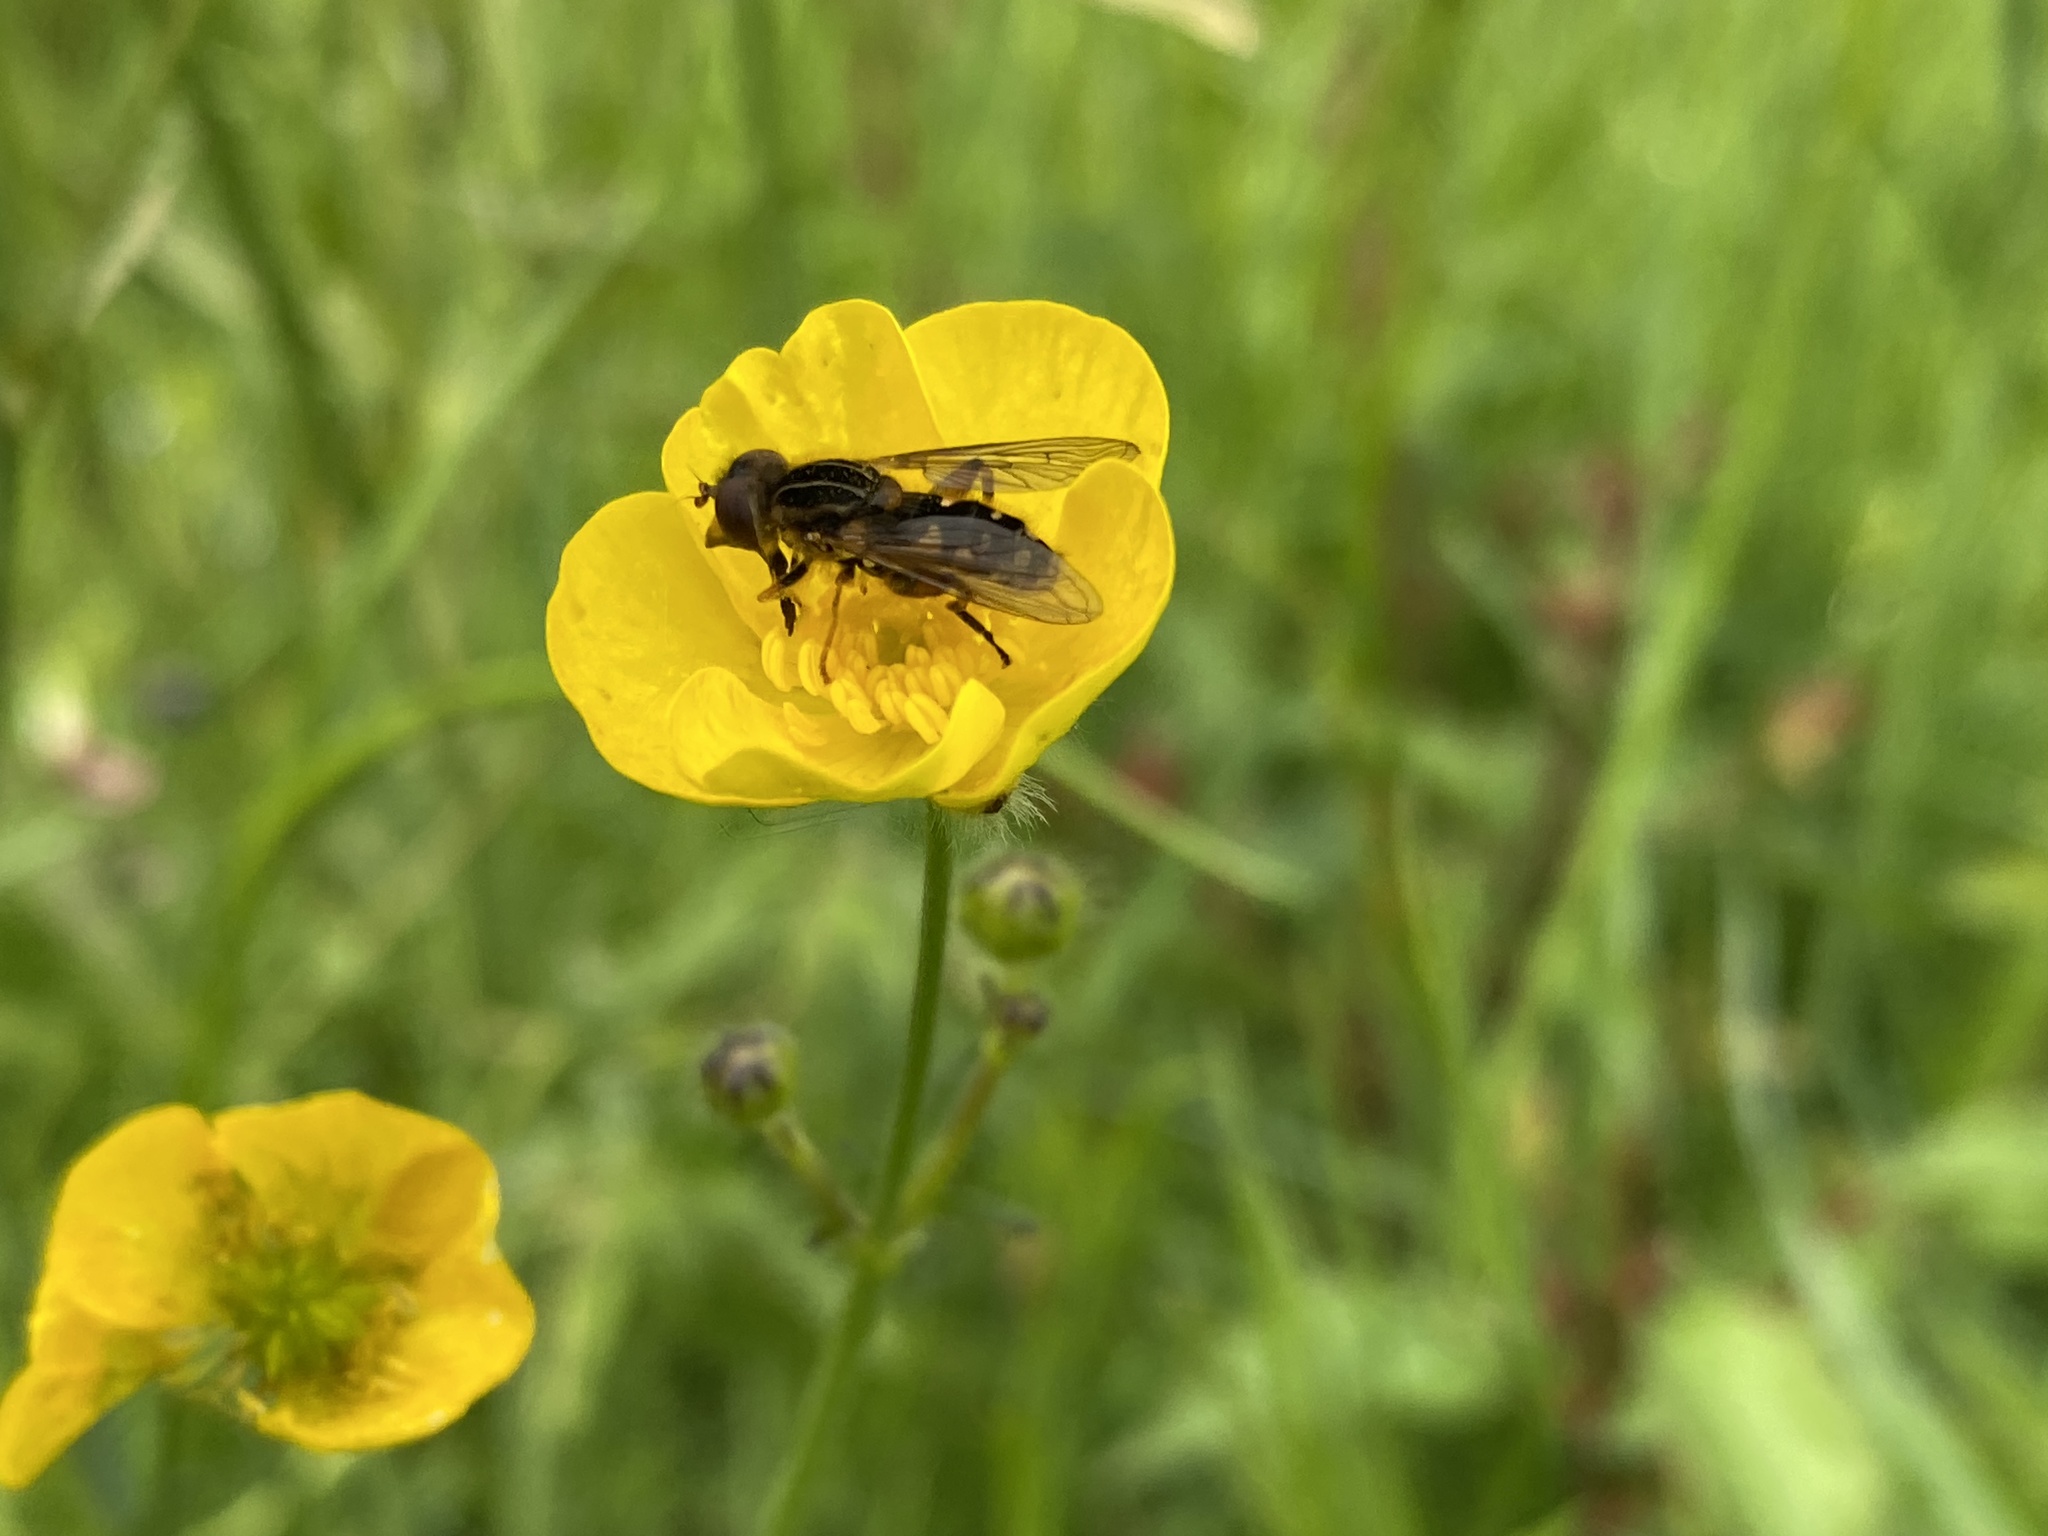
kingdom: Animalia
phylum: Arthropoda
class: Insecta
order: Diptera
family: Syrphidae
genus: Eurimyia
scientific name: Eurimyia lineatus
